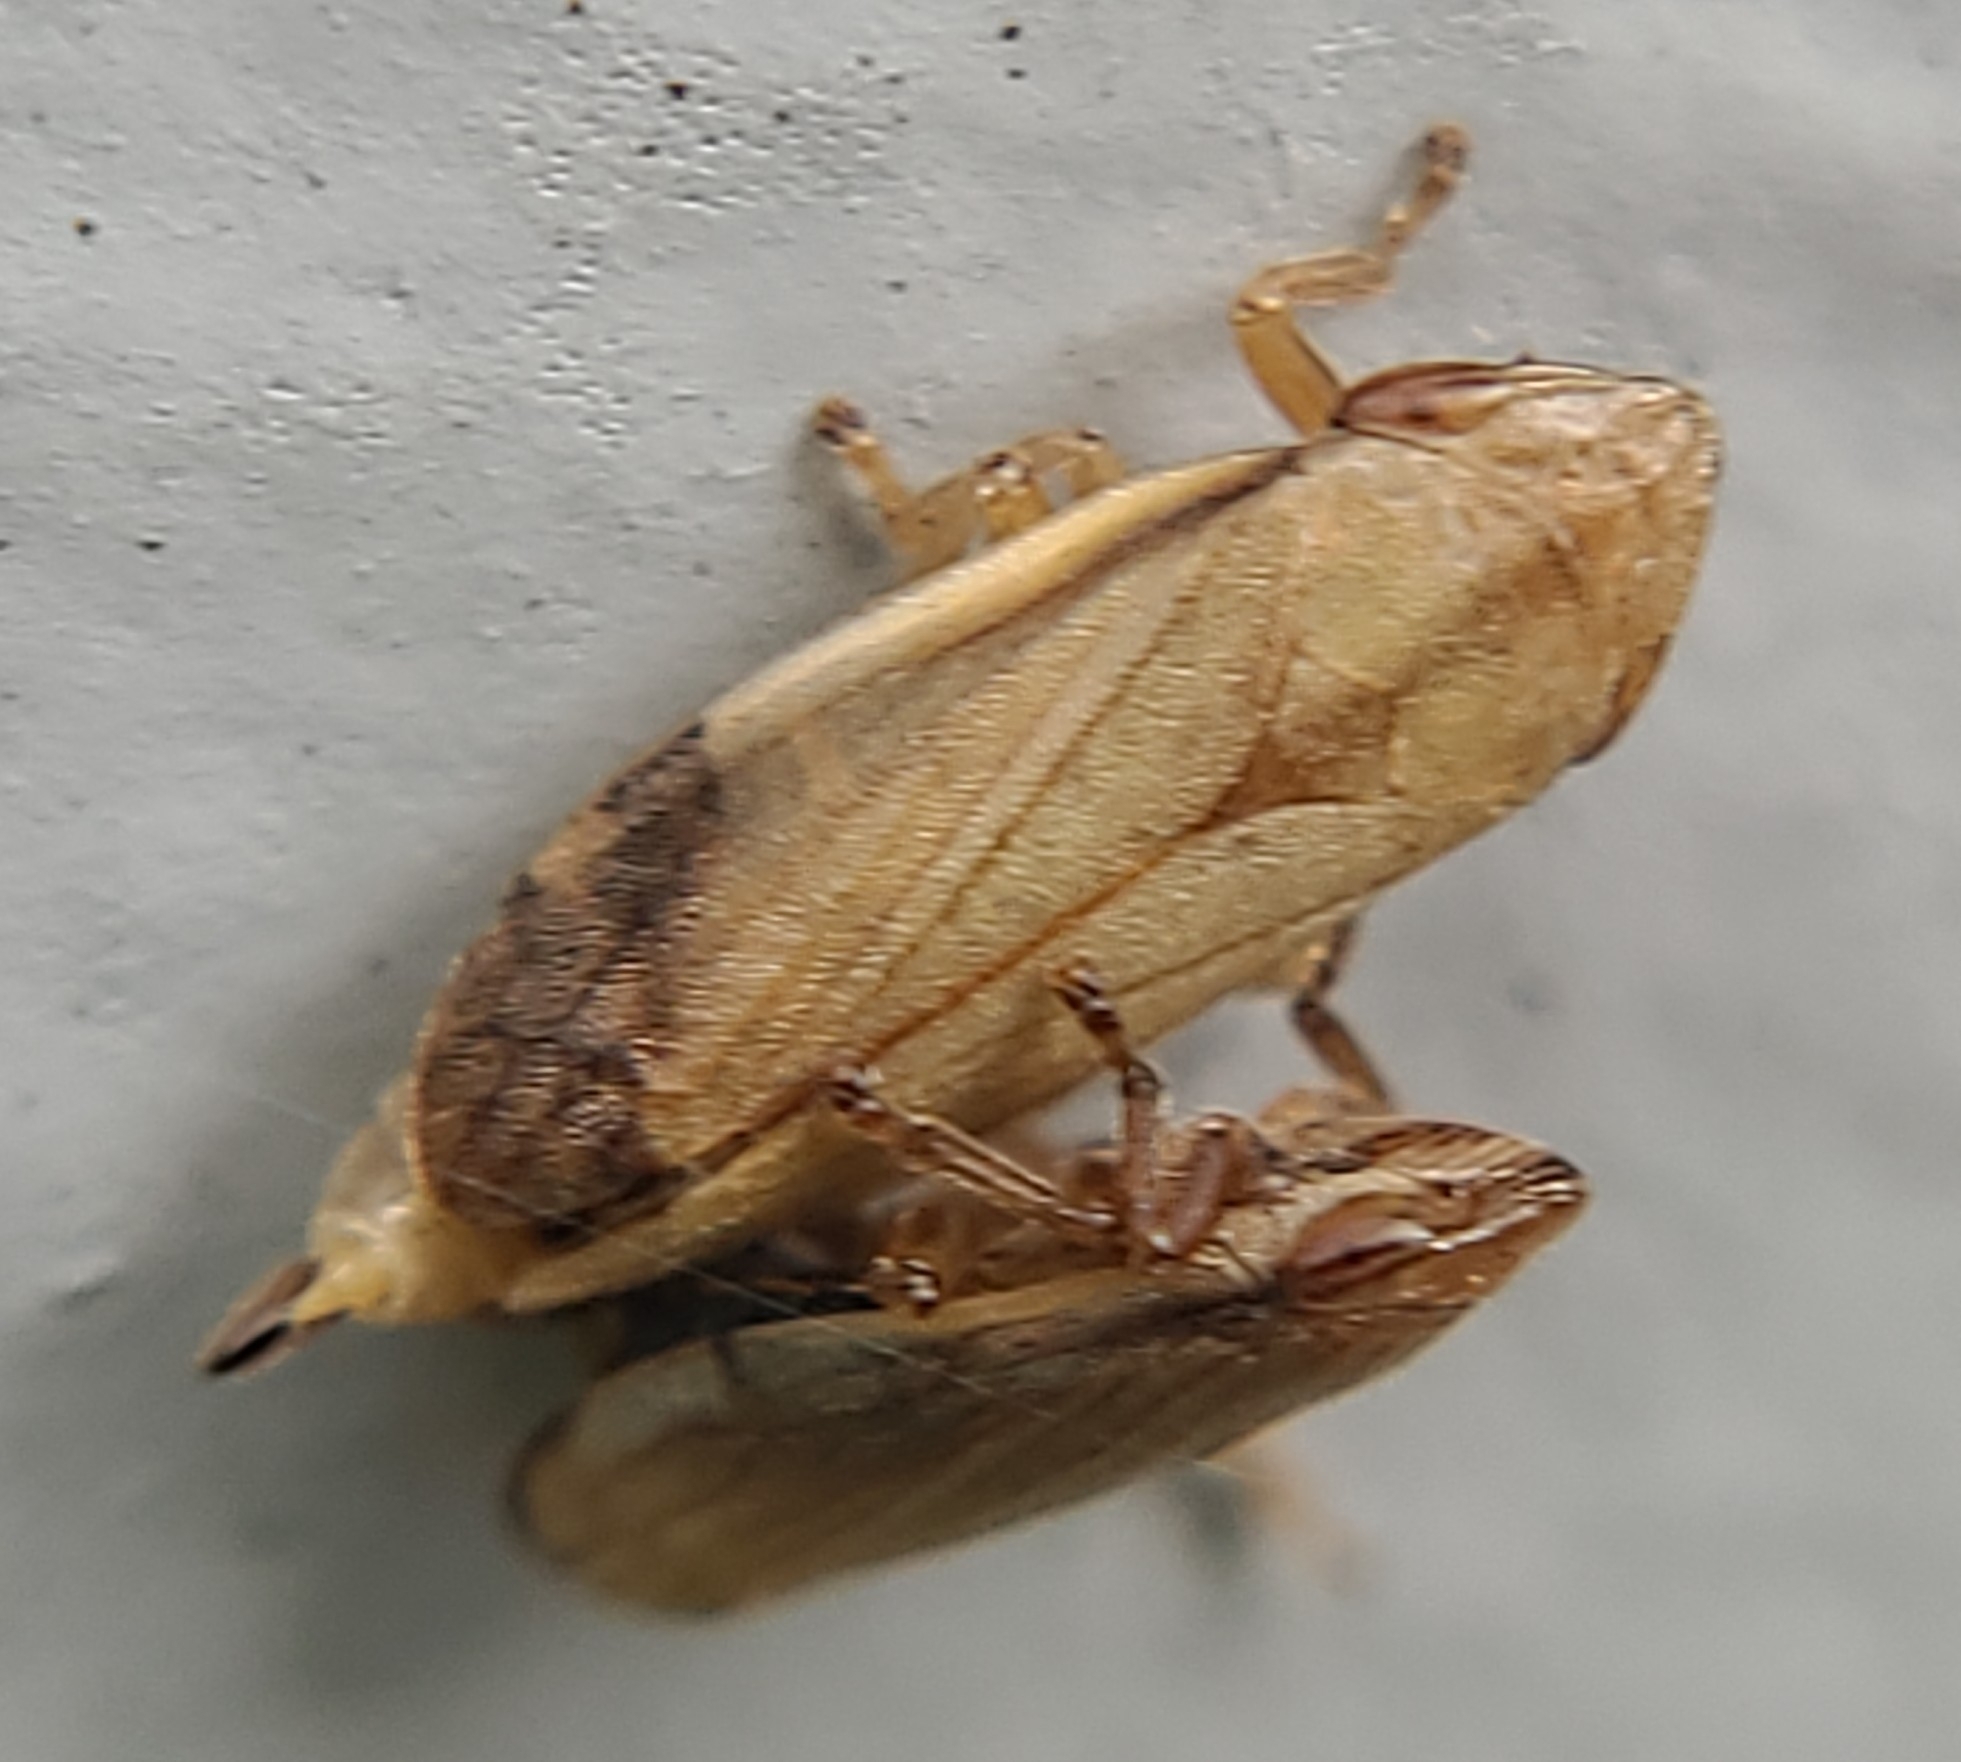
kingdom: Animalia
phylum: Arthropoda
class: Insecta
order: Hemiptera
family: Aphrophoridae
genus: Neophilaenus
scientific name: Neophilaenus lineatus
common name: Spittlebug
